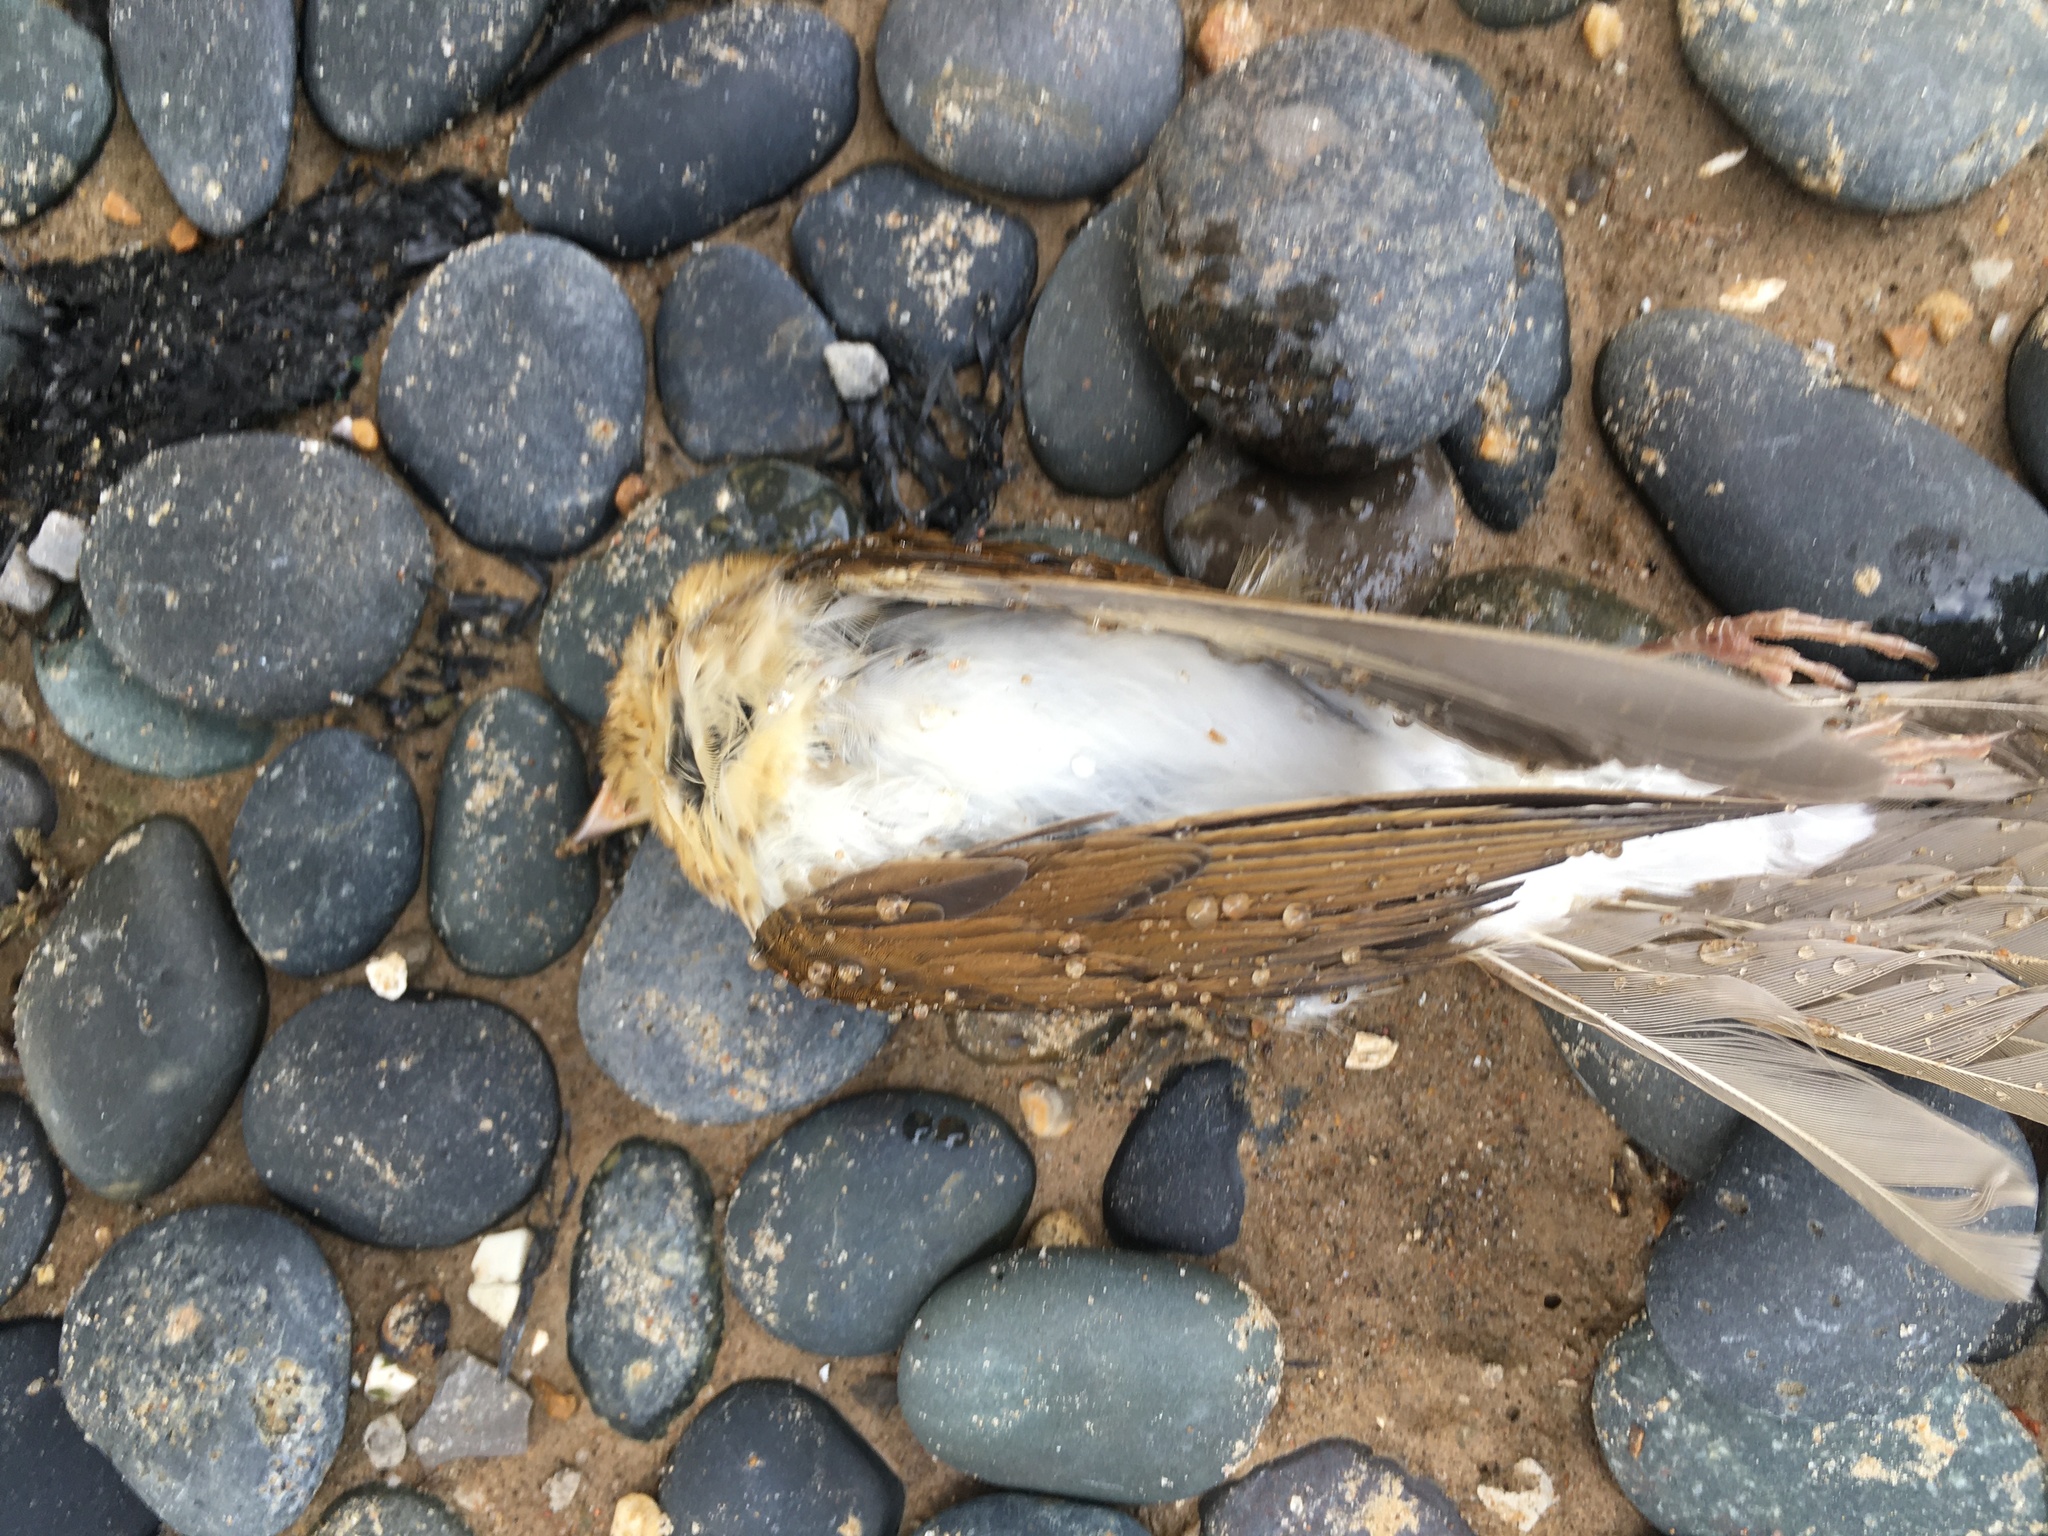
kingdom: Animalia
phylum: Chordata
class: Aves
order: Passeriformes
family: Turdidae
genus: Catharus
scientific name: Catharus fuscescens
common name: Veery
